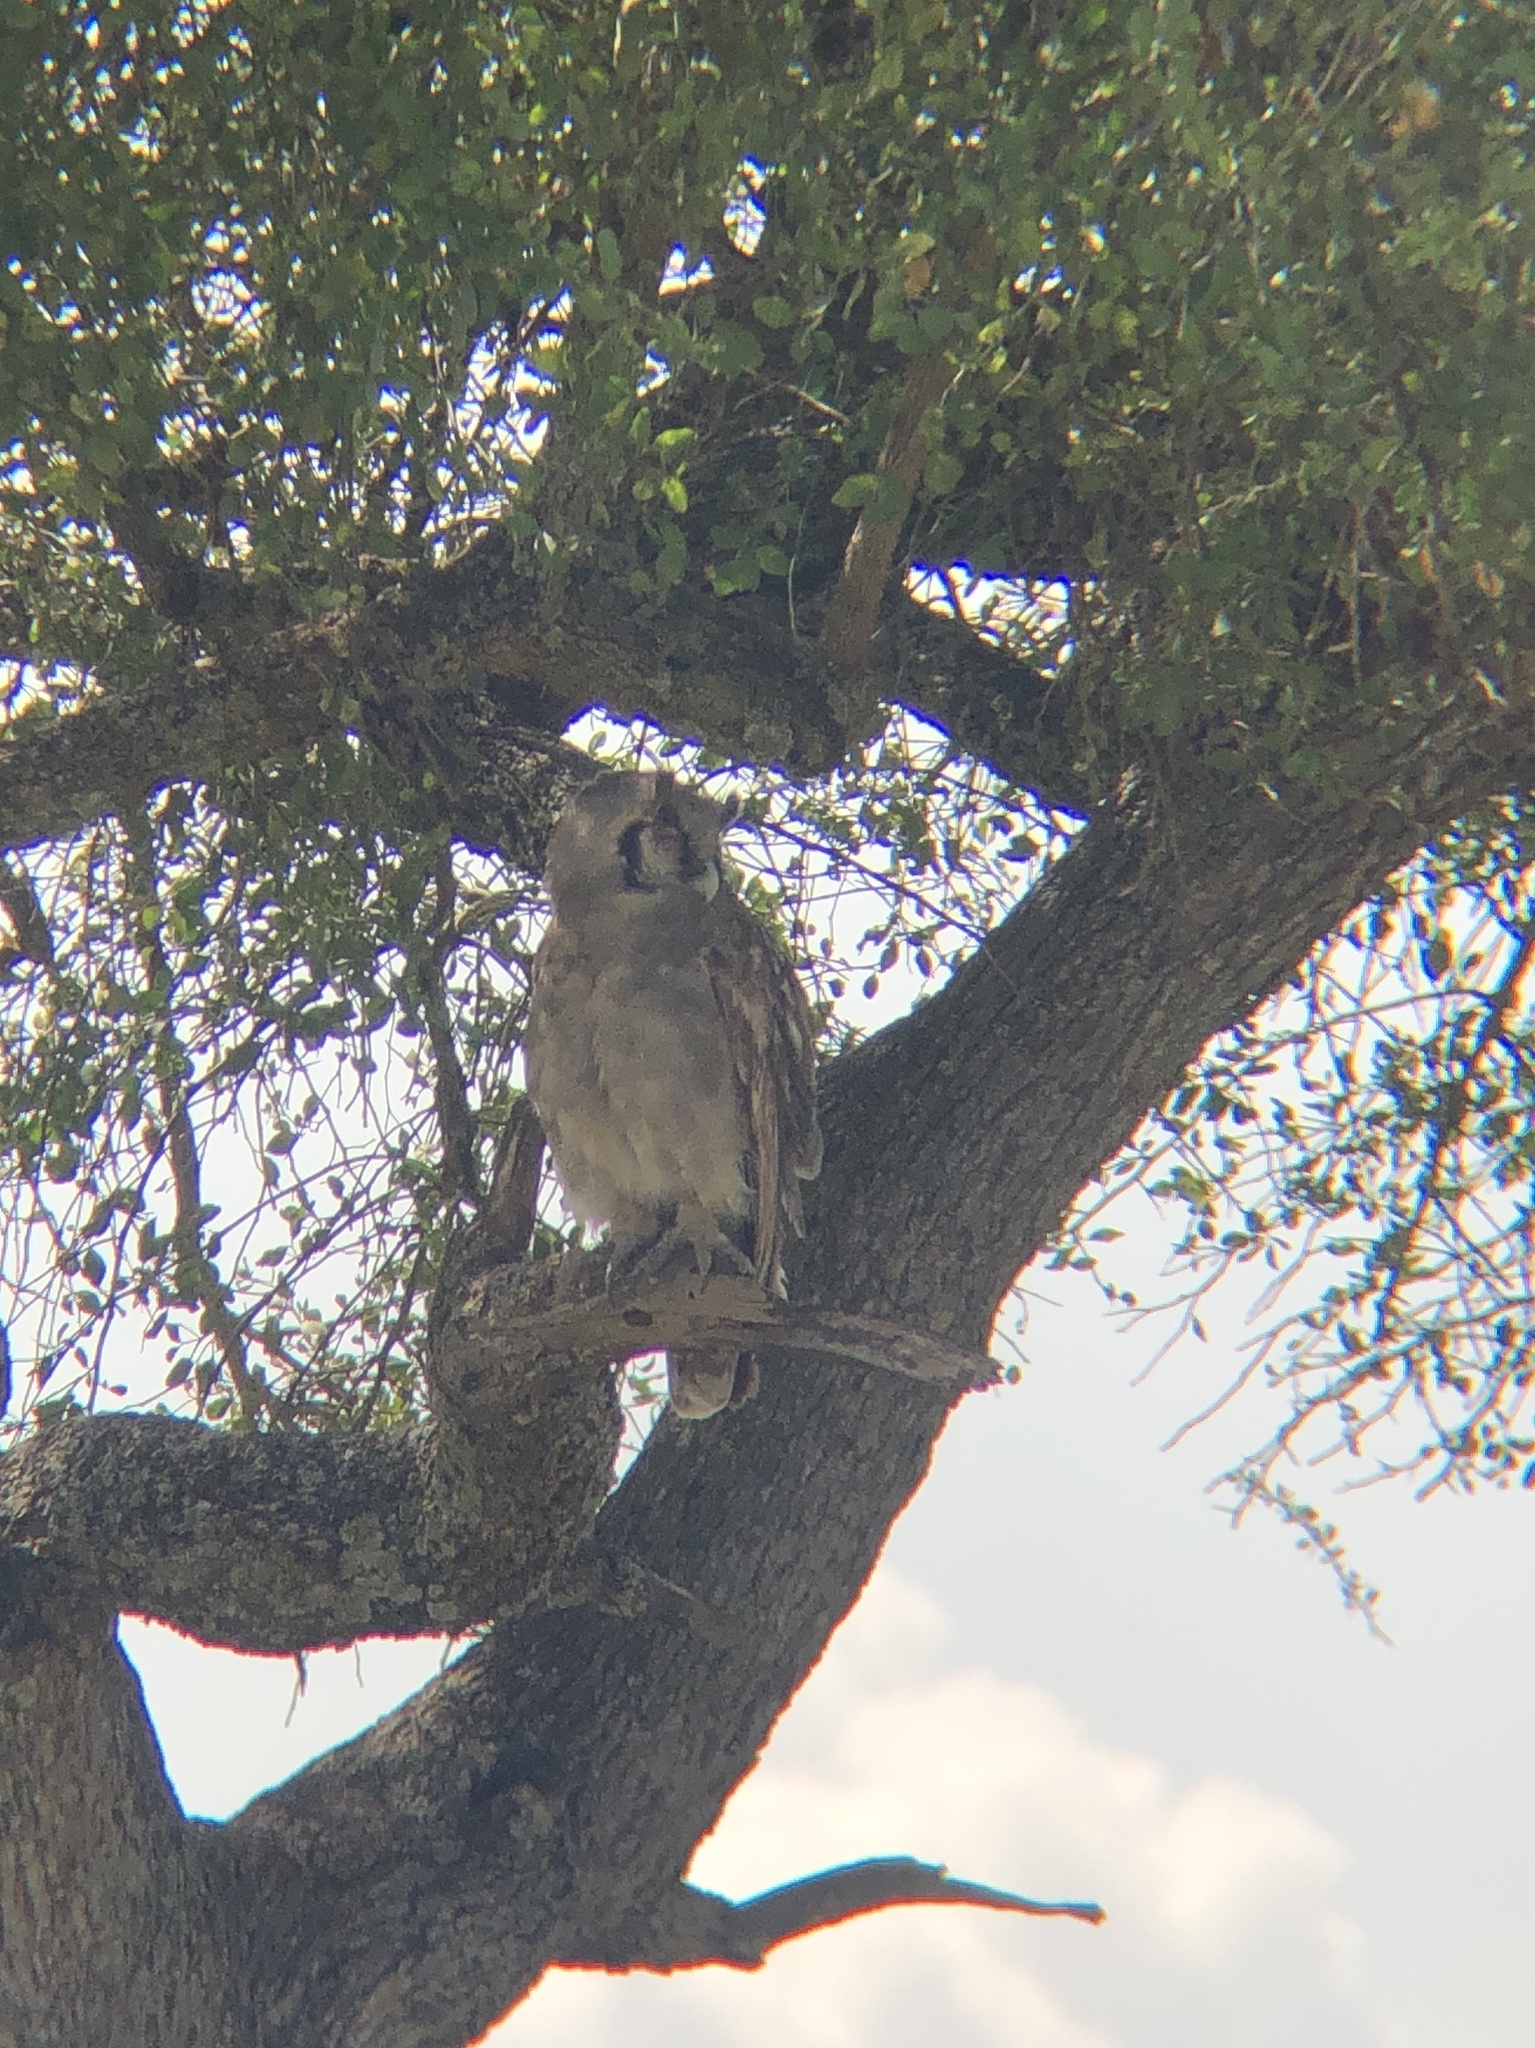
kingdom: Animalia
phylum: Chordata
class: Aves
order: Strigiformes
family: Strigidae
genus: Bubo
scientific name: Bubo lacteus
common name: Verreaux's eagle-owl
